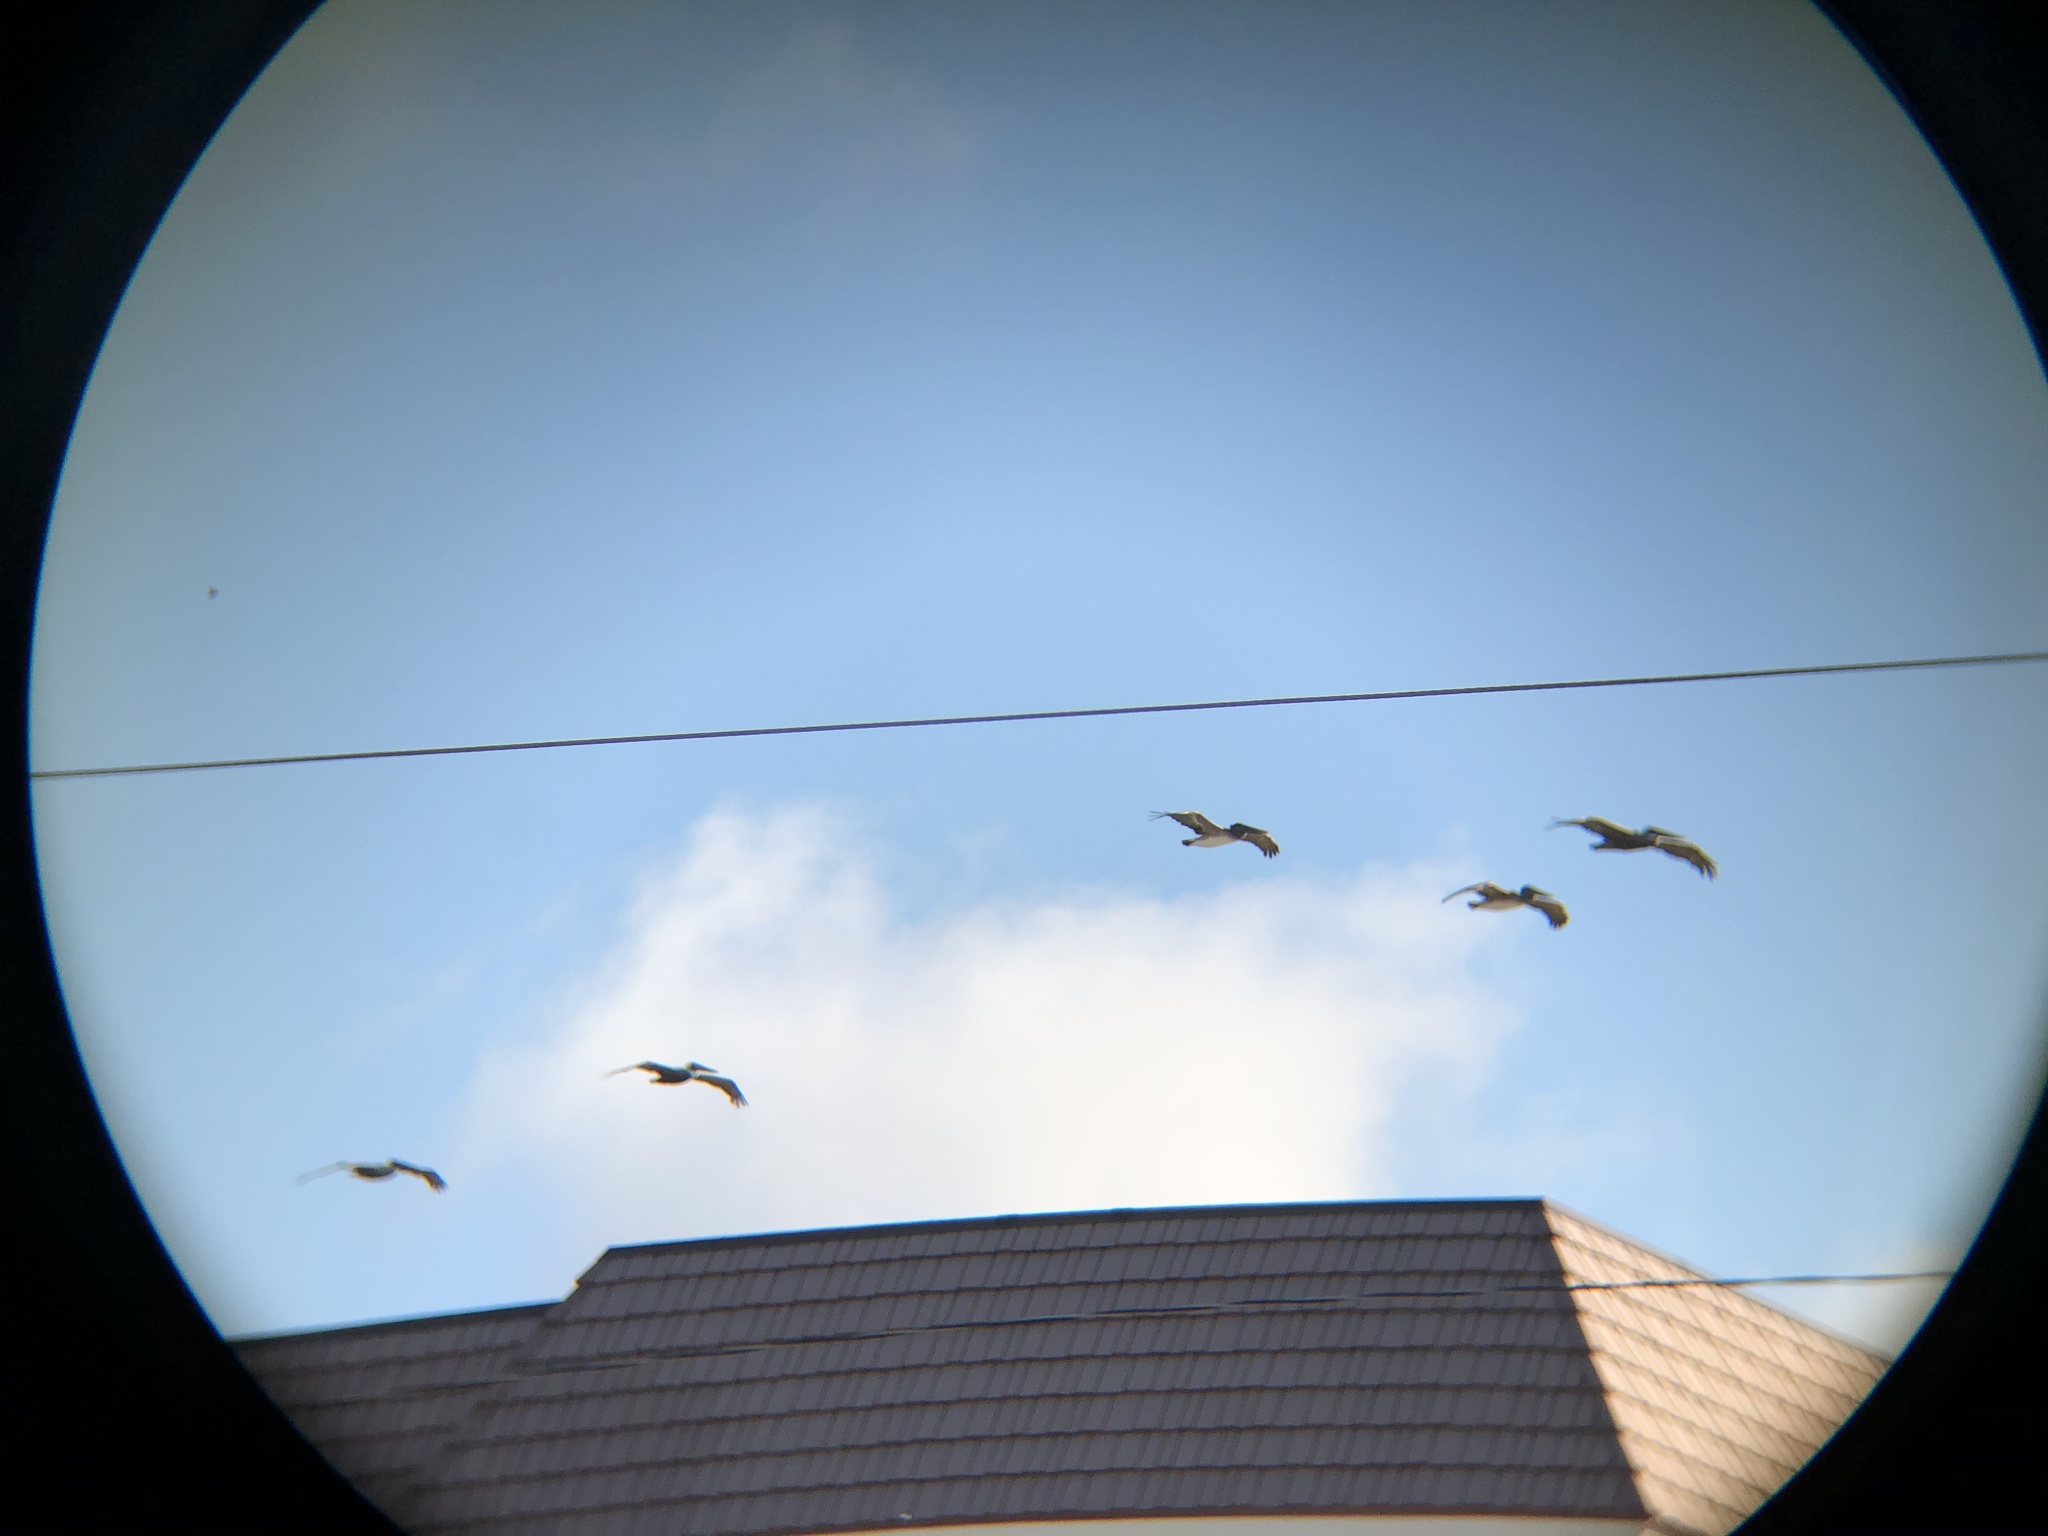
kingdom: Animalia
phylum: Chordata
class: Aves
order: Pelecaniformes
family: Pelecanidae
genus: Pelecanus
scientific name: Pelecanus occidentalis
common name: Brown pelican
